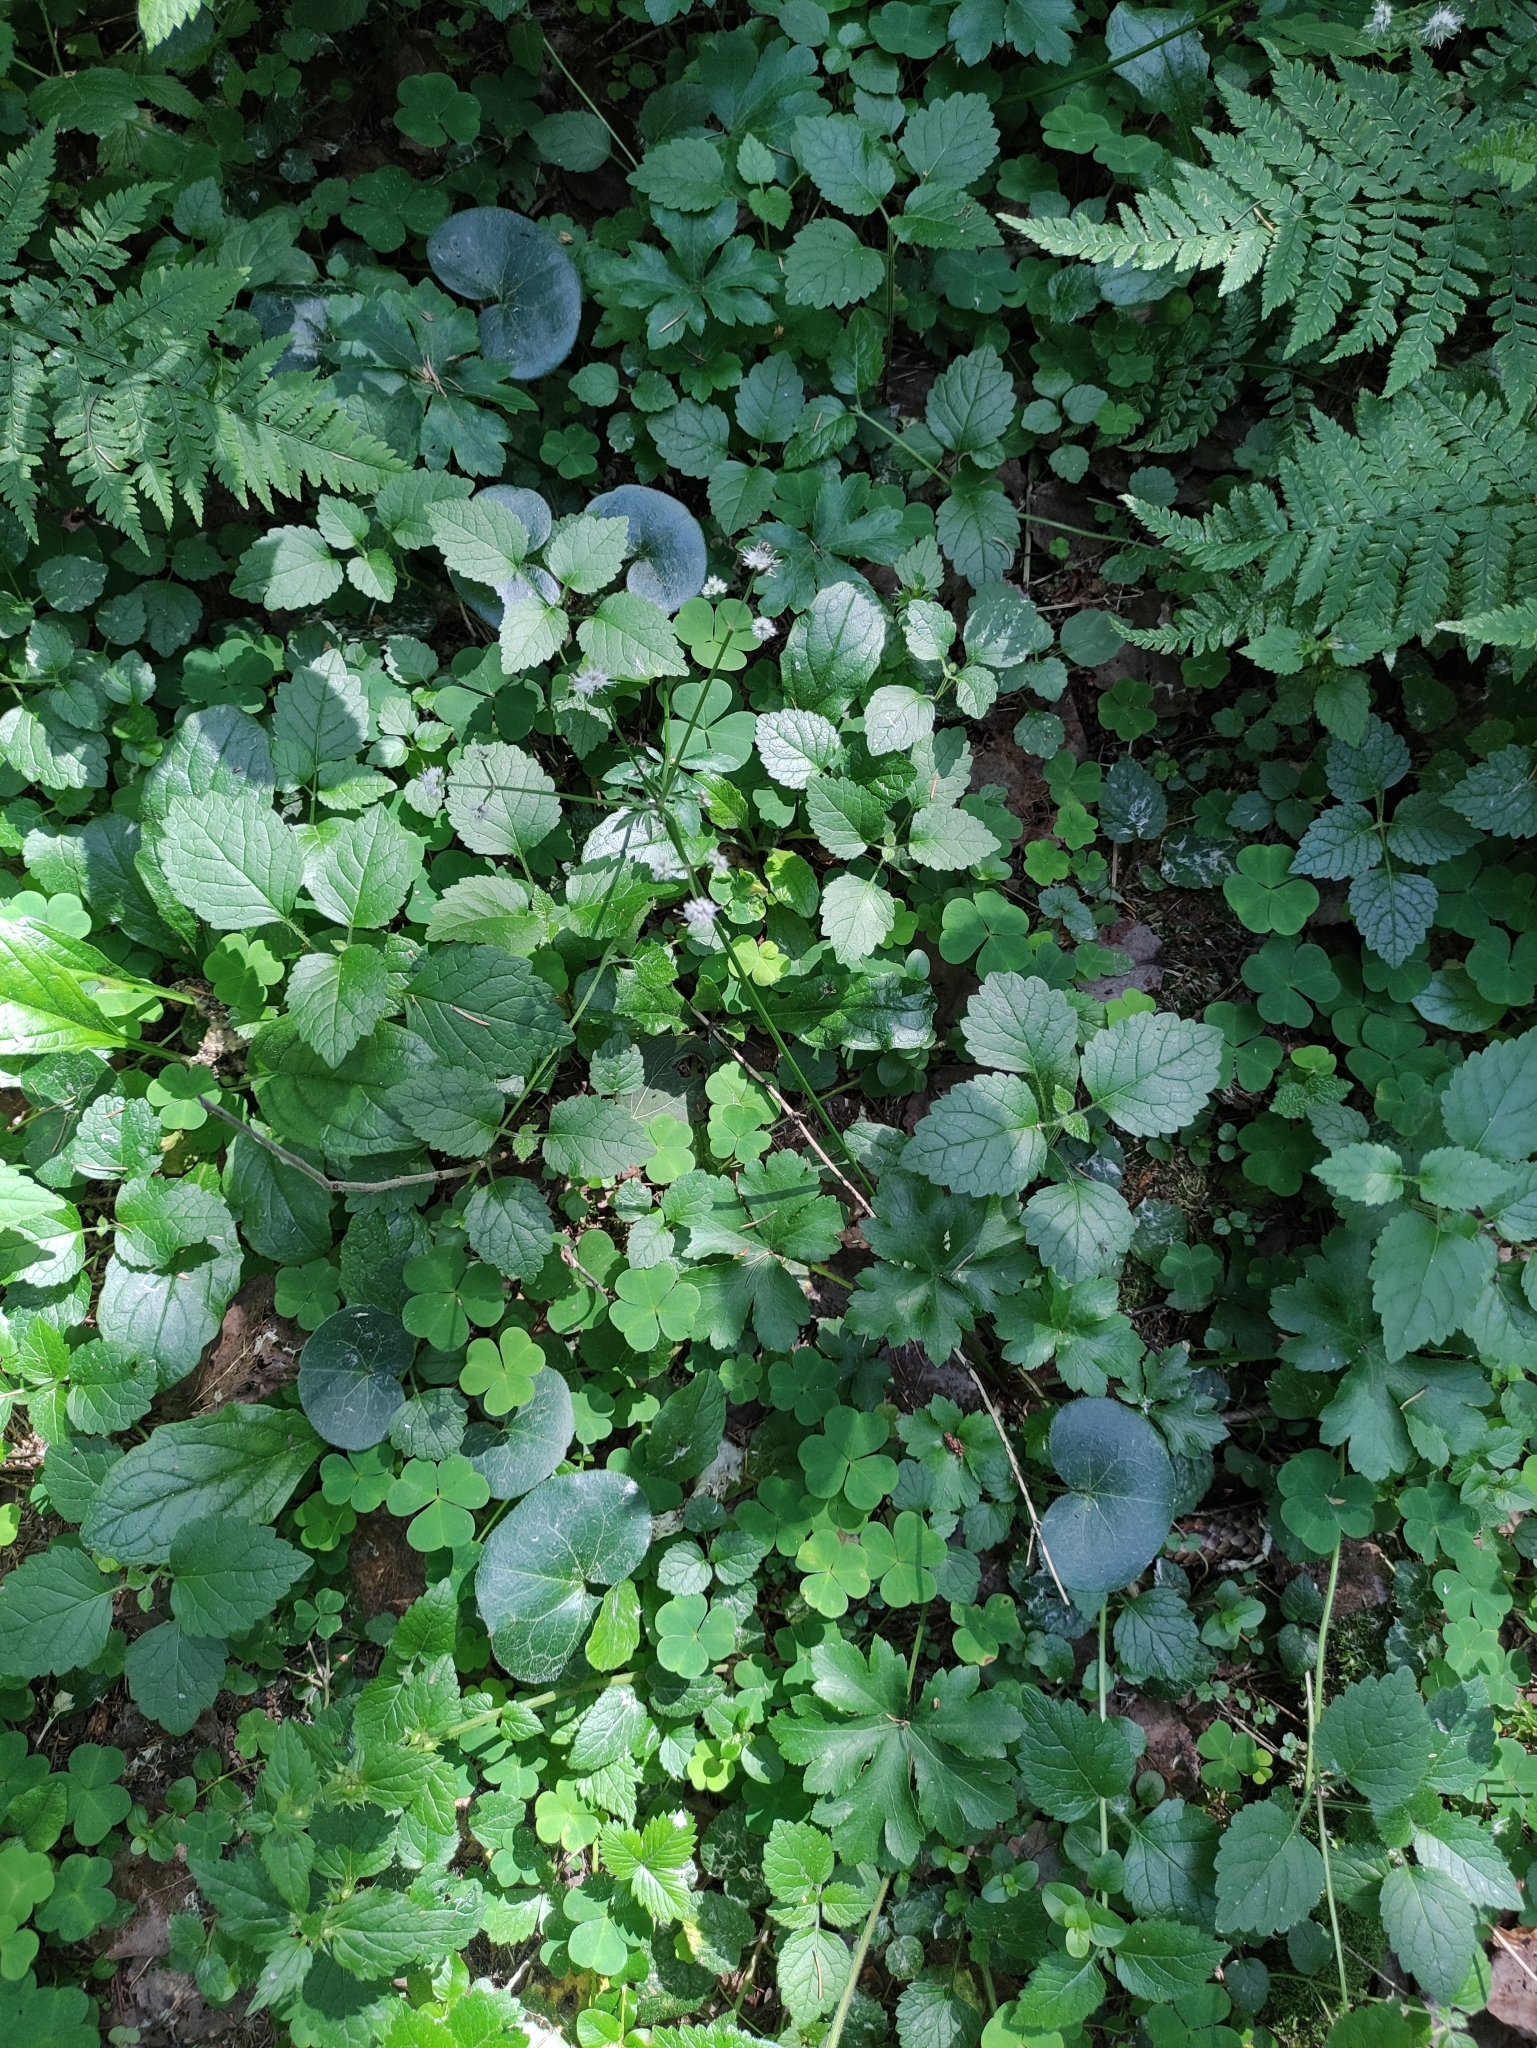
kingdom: Plantae
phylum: Tracheophyta
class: Magnoliopsida
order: Apiales
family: Apiaceae
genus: Sanicula
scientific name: Sanicula europaea
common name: Sanicle
